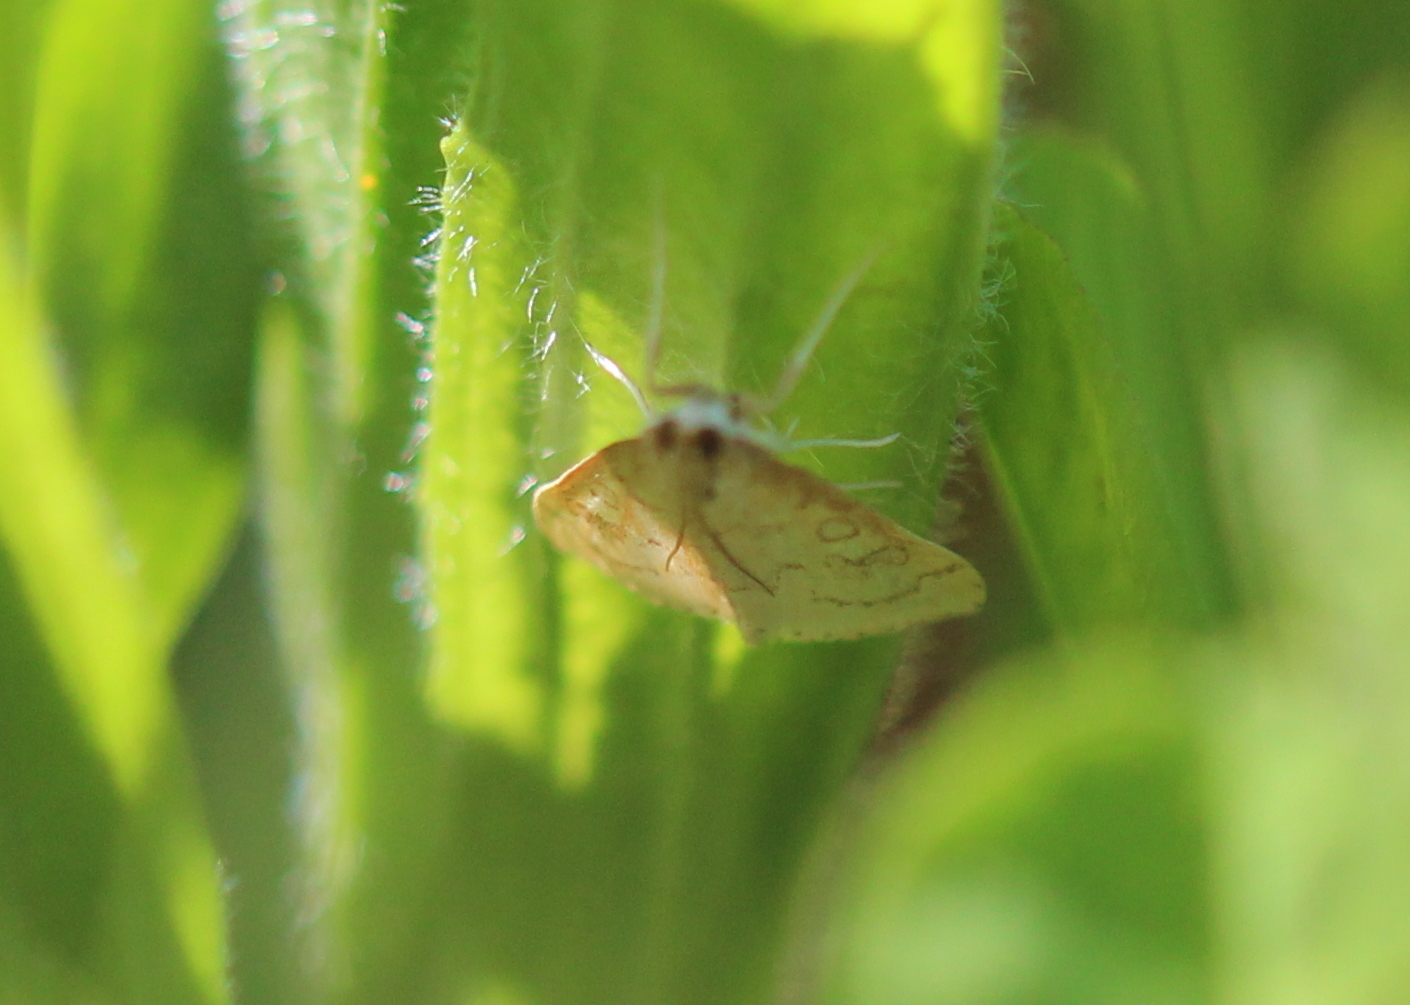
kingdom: Animalia
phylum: Arthropoda
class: Insecta
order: Lepidoptera
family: Crambidae
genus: Udea
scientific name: Udea rubigalis
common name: Celery leaftier moth
